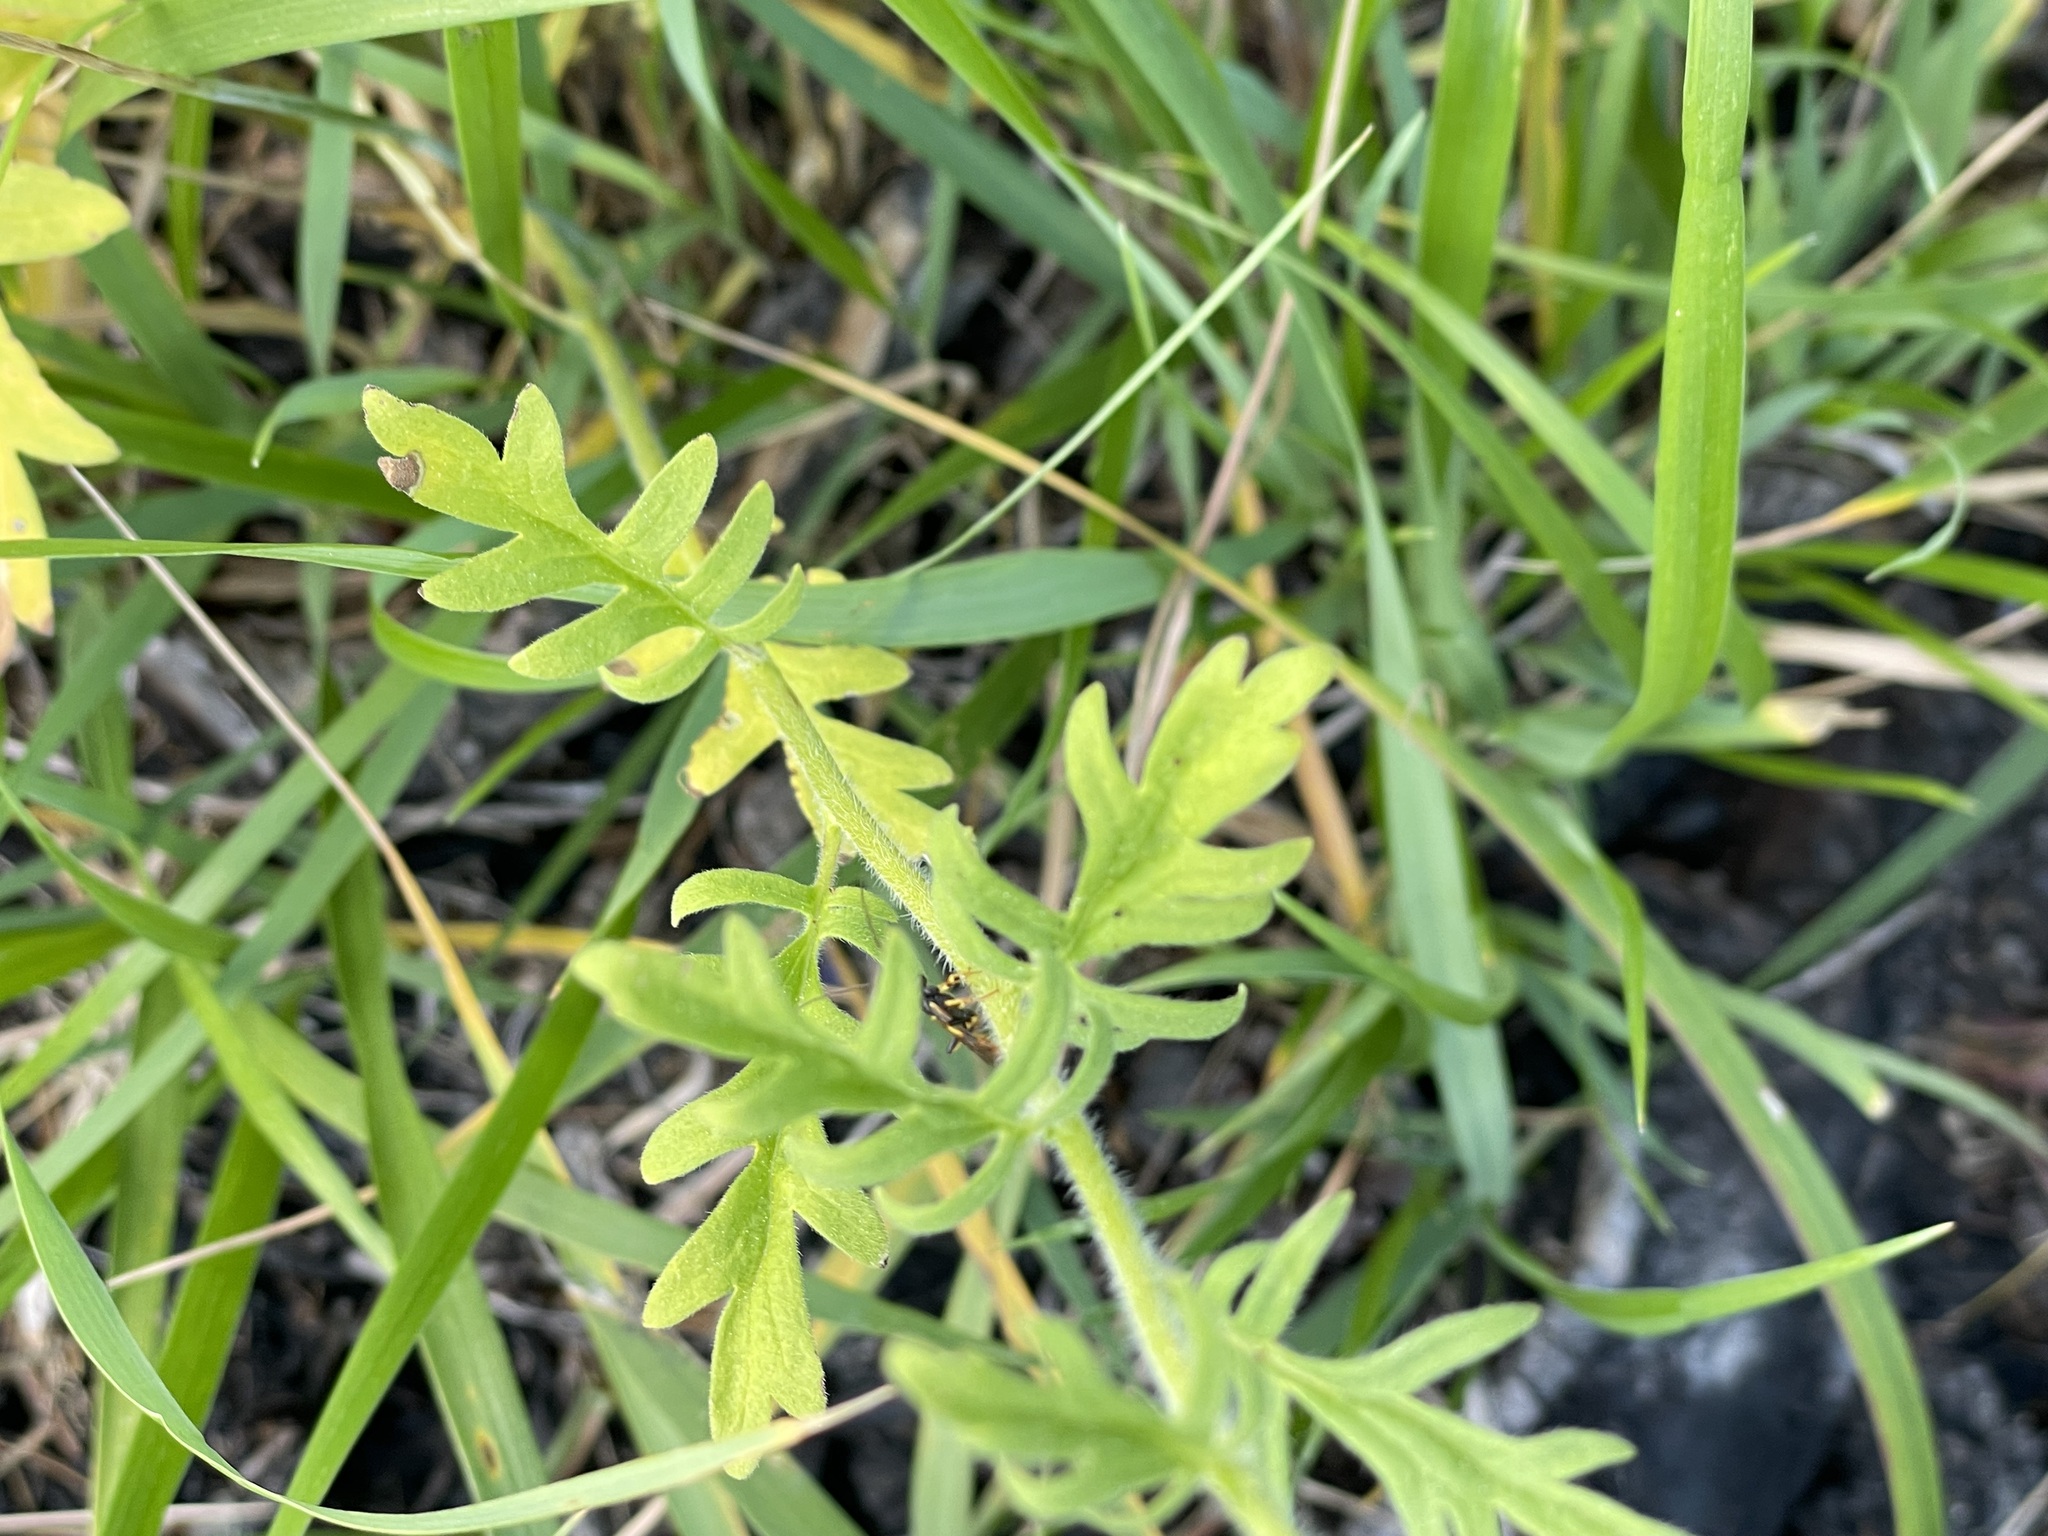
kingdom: Plantae
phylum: Tracheophyta
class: Magnoliopsida
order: Boraginales
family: Hydrophyllaceae
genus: Phacelia
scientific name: Phacelia franklinii
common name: Franklin's phacelia
